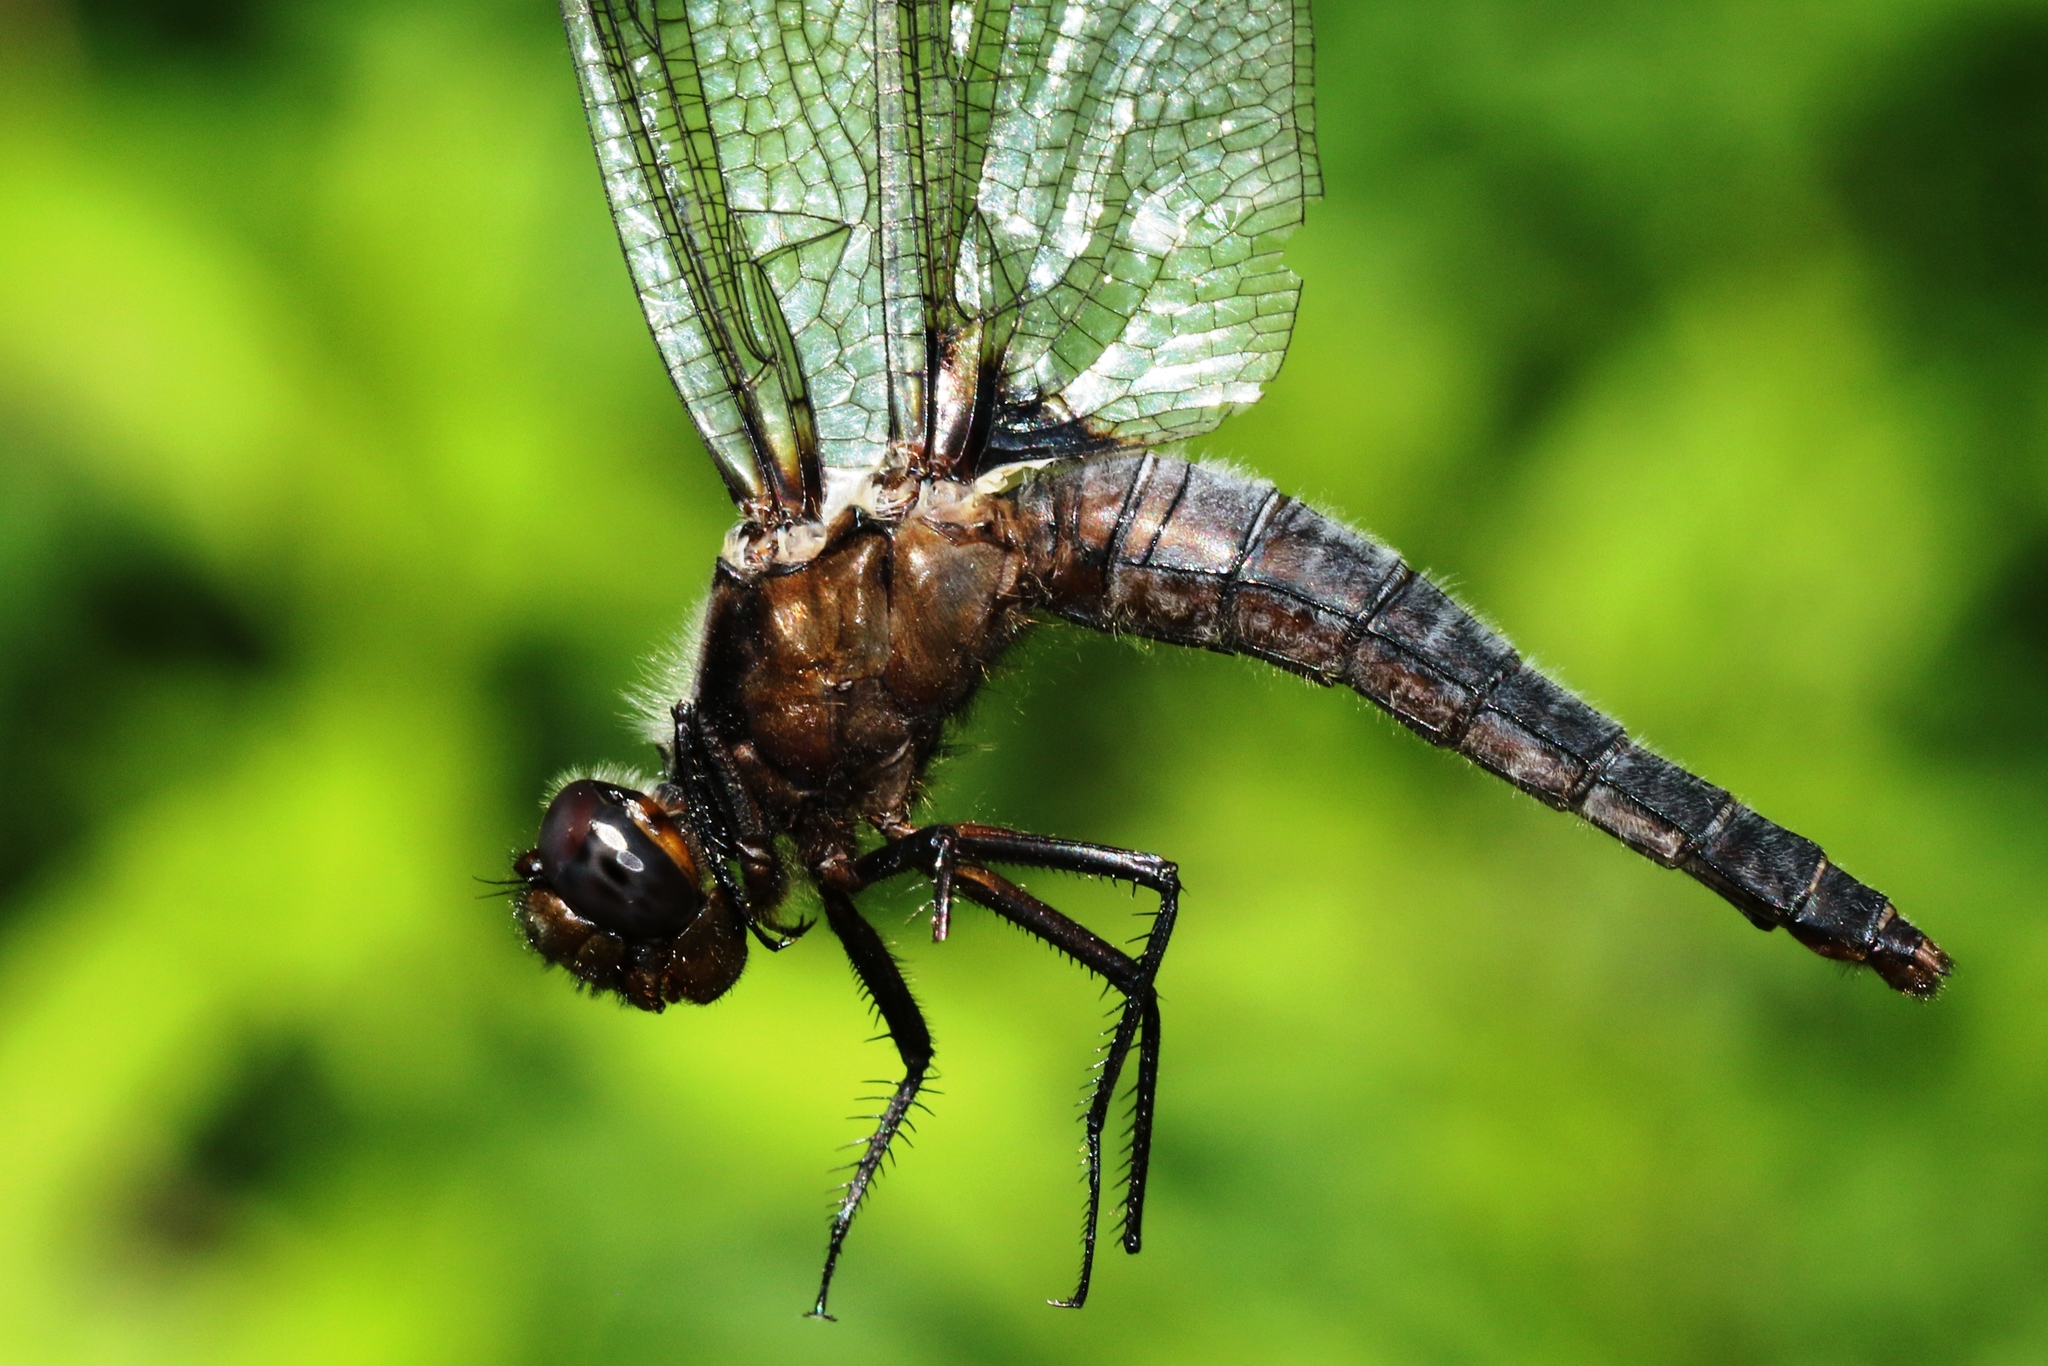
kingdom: Animalia
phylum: Arthropoda
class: Insecta
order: Odonata
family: Libellulidae
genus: Ladona
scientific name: Ladona julia
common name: Chalk-fronted corporal
